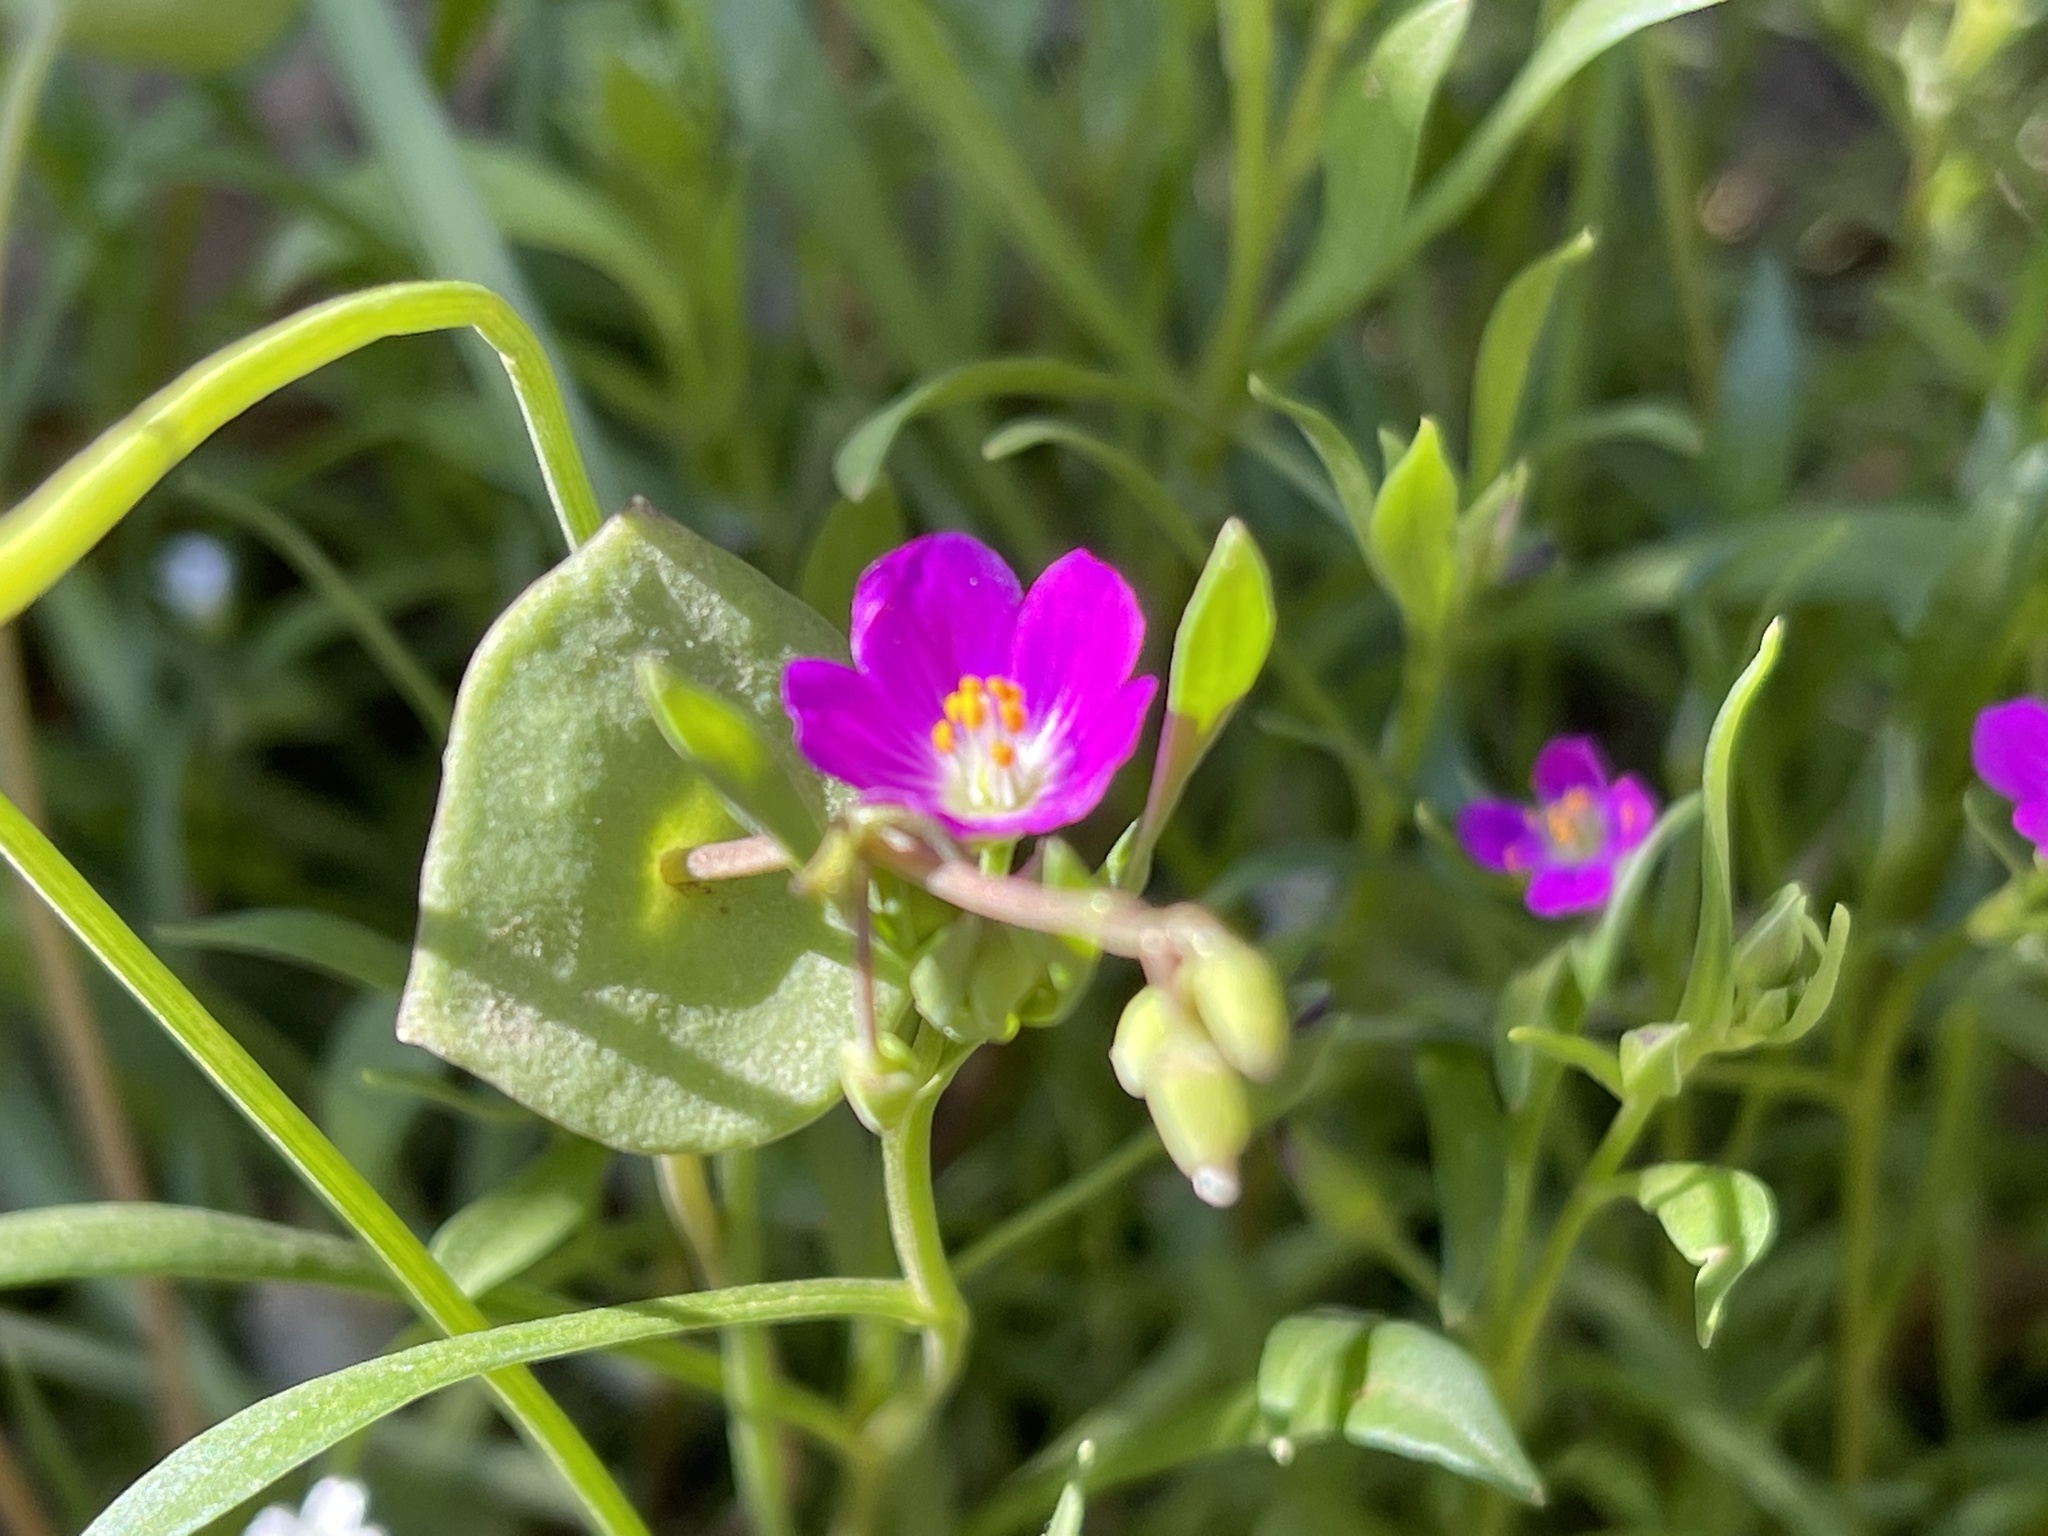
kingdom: Plantae
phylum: Tracheophyta
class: Magnoliopsida
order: Caryophyllales
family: Montiaceae
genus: Calandrinia
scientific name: Calandrinia menziesii
